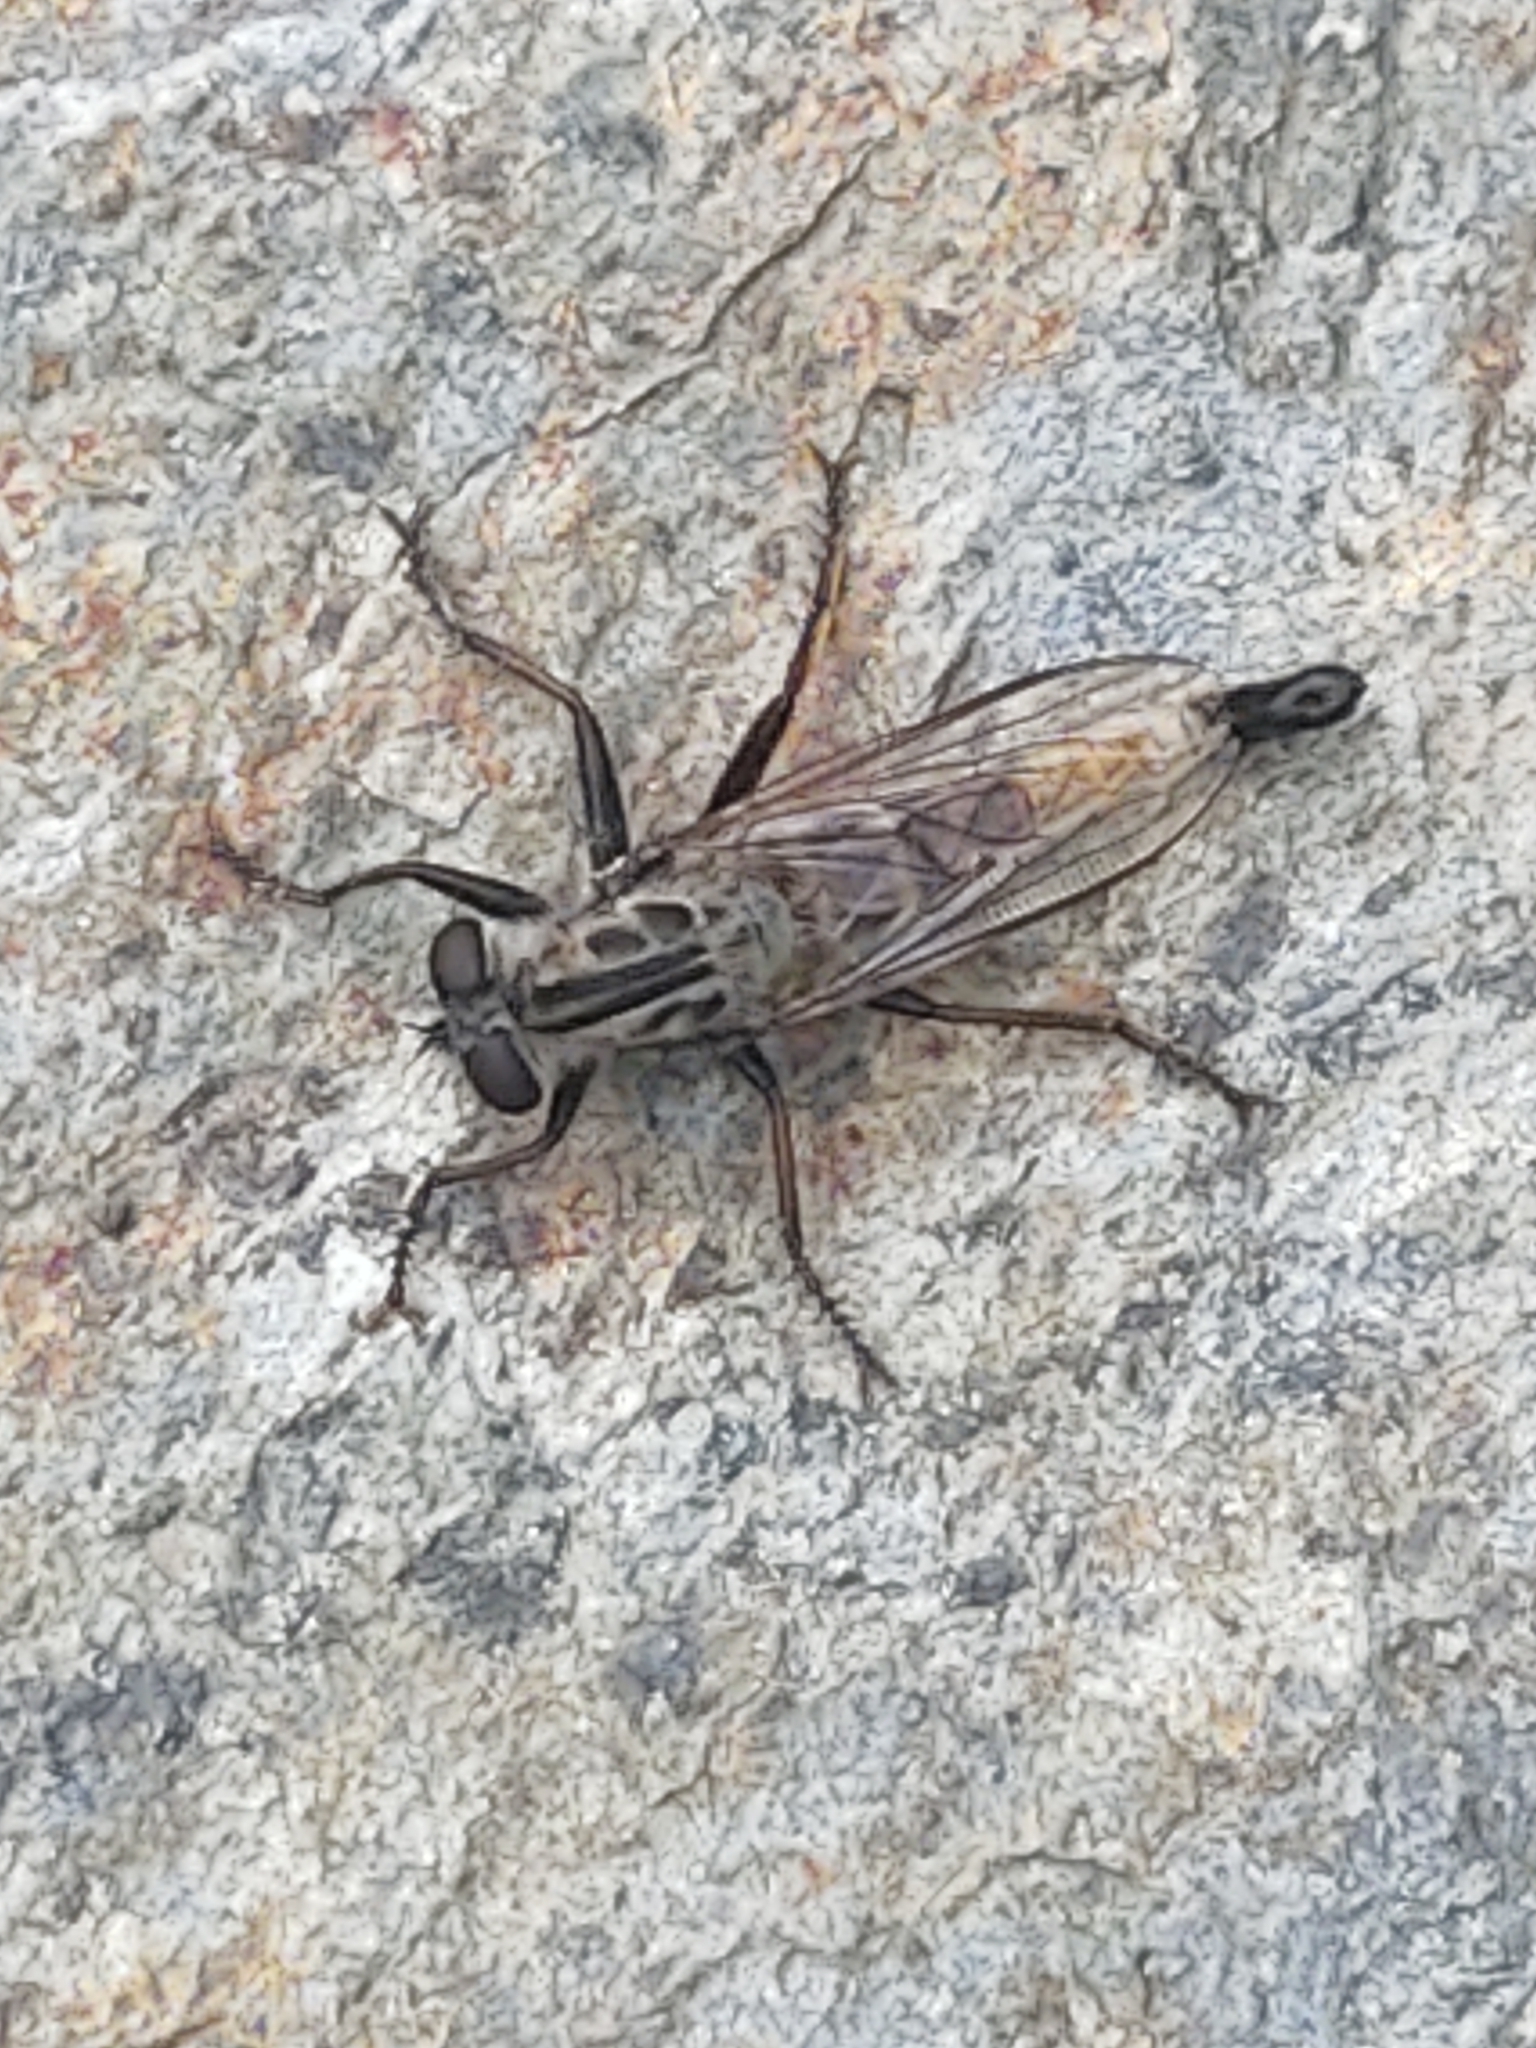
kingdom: Animalia
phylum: Arthropoda
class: Insecta
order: Diptera
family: Asilidae
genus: Efferia
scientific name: Efferia aestuans
